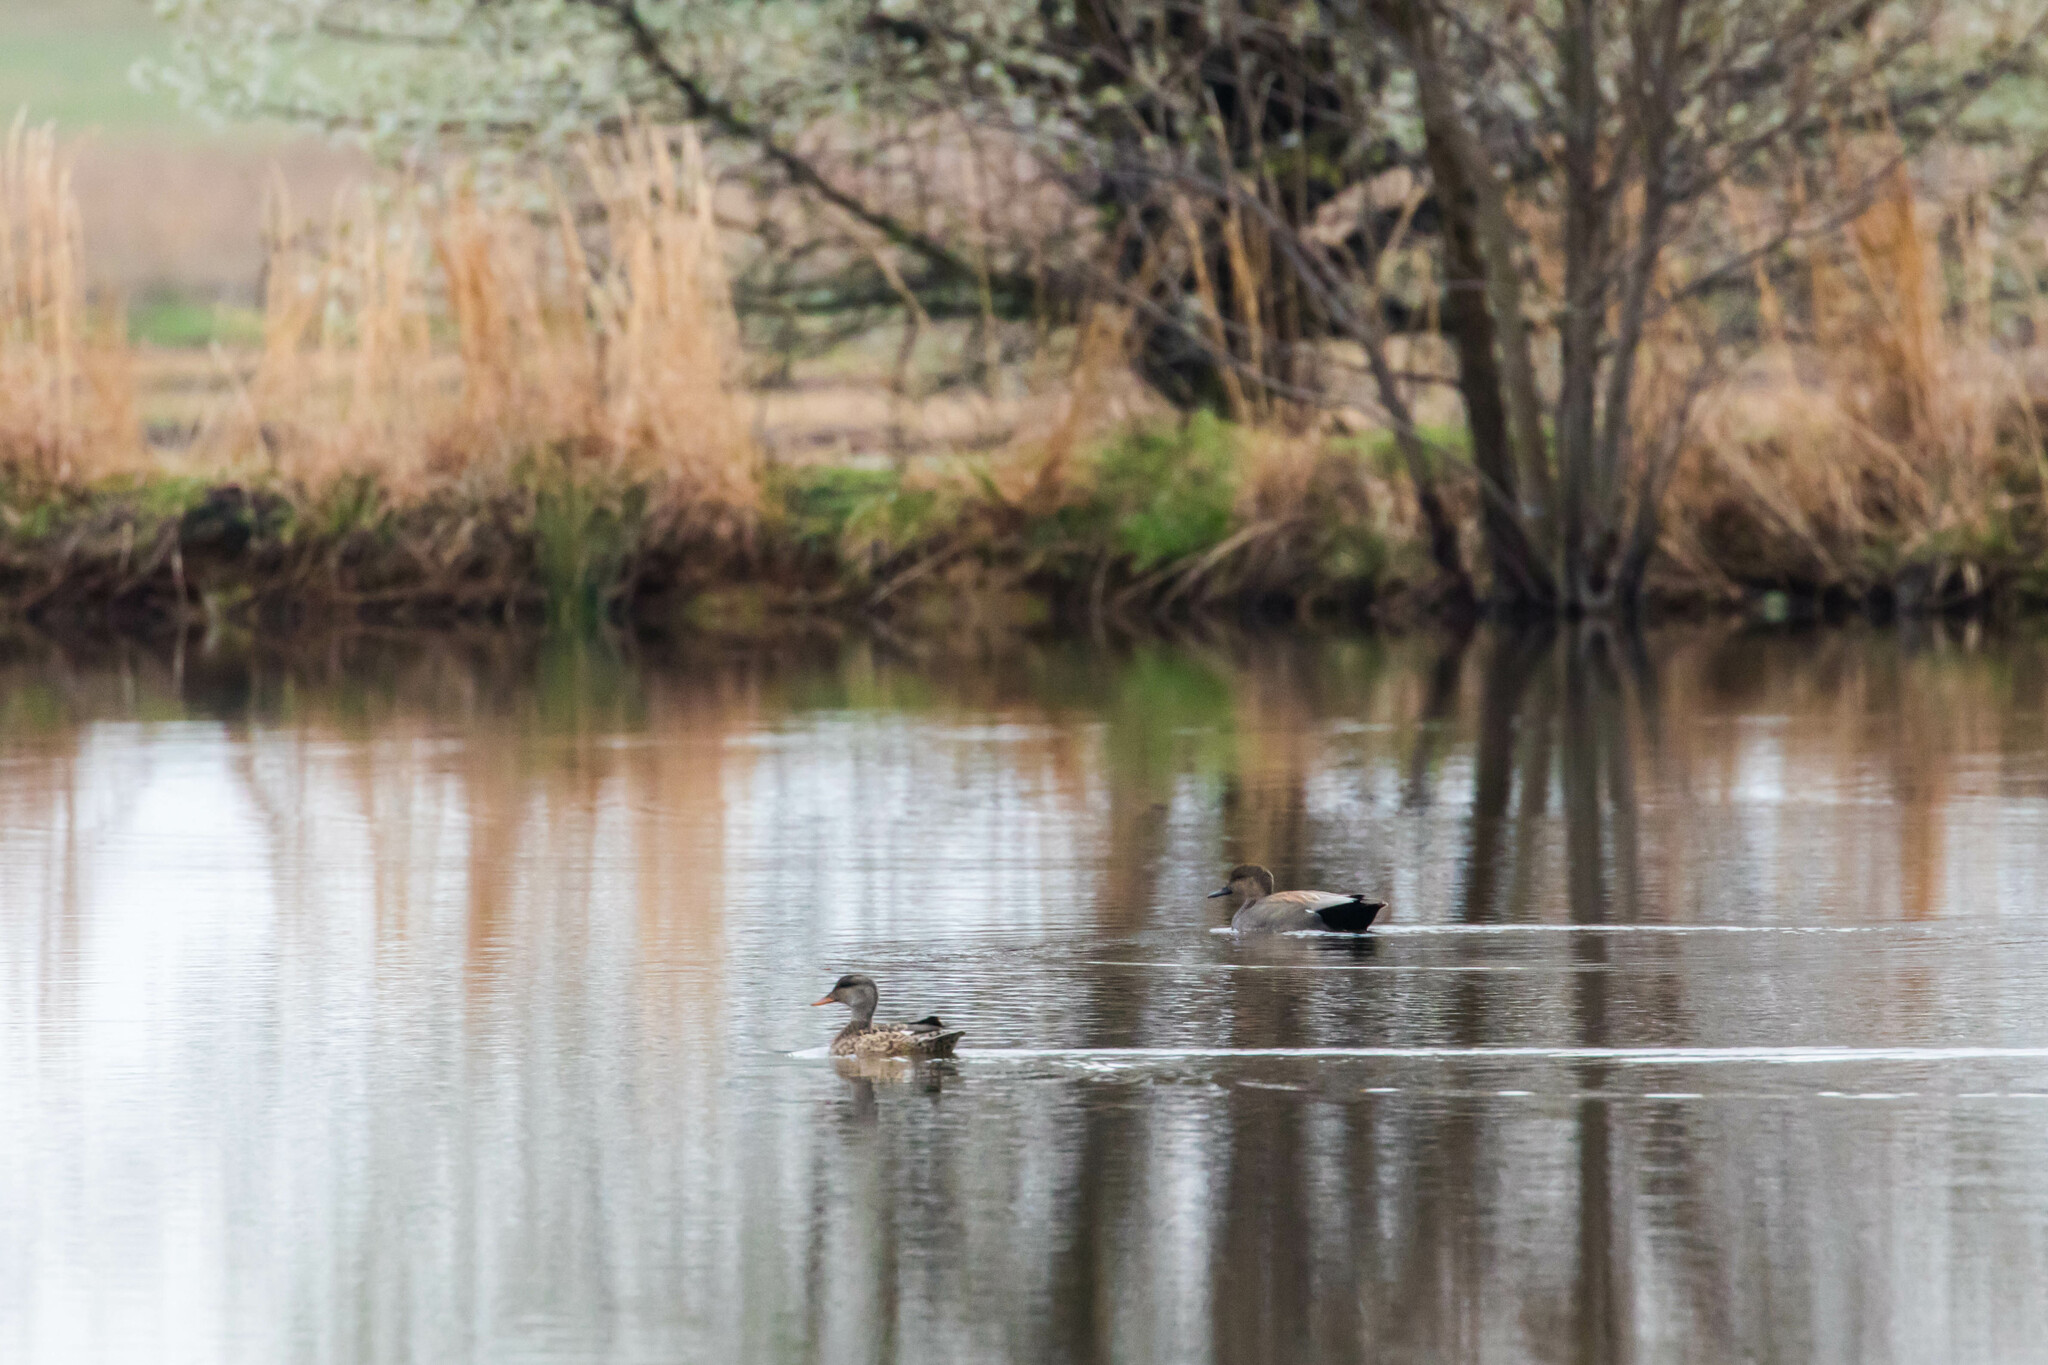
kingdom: Animalia
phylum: Chordata
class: Aves
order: Anseriformes
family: Anatidae
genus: Mareca
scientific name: Mareca strepera
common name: Gadwall
